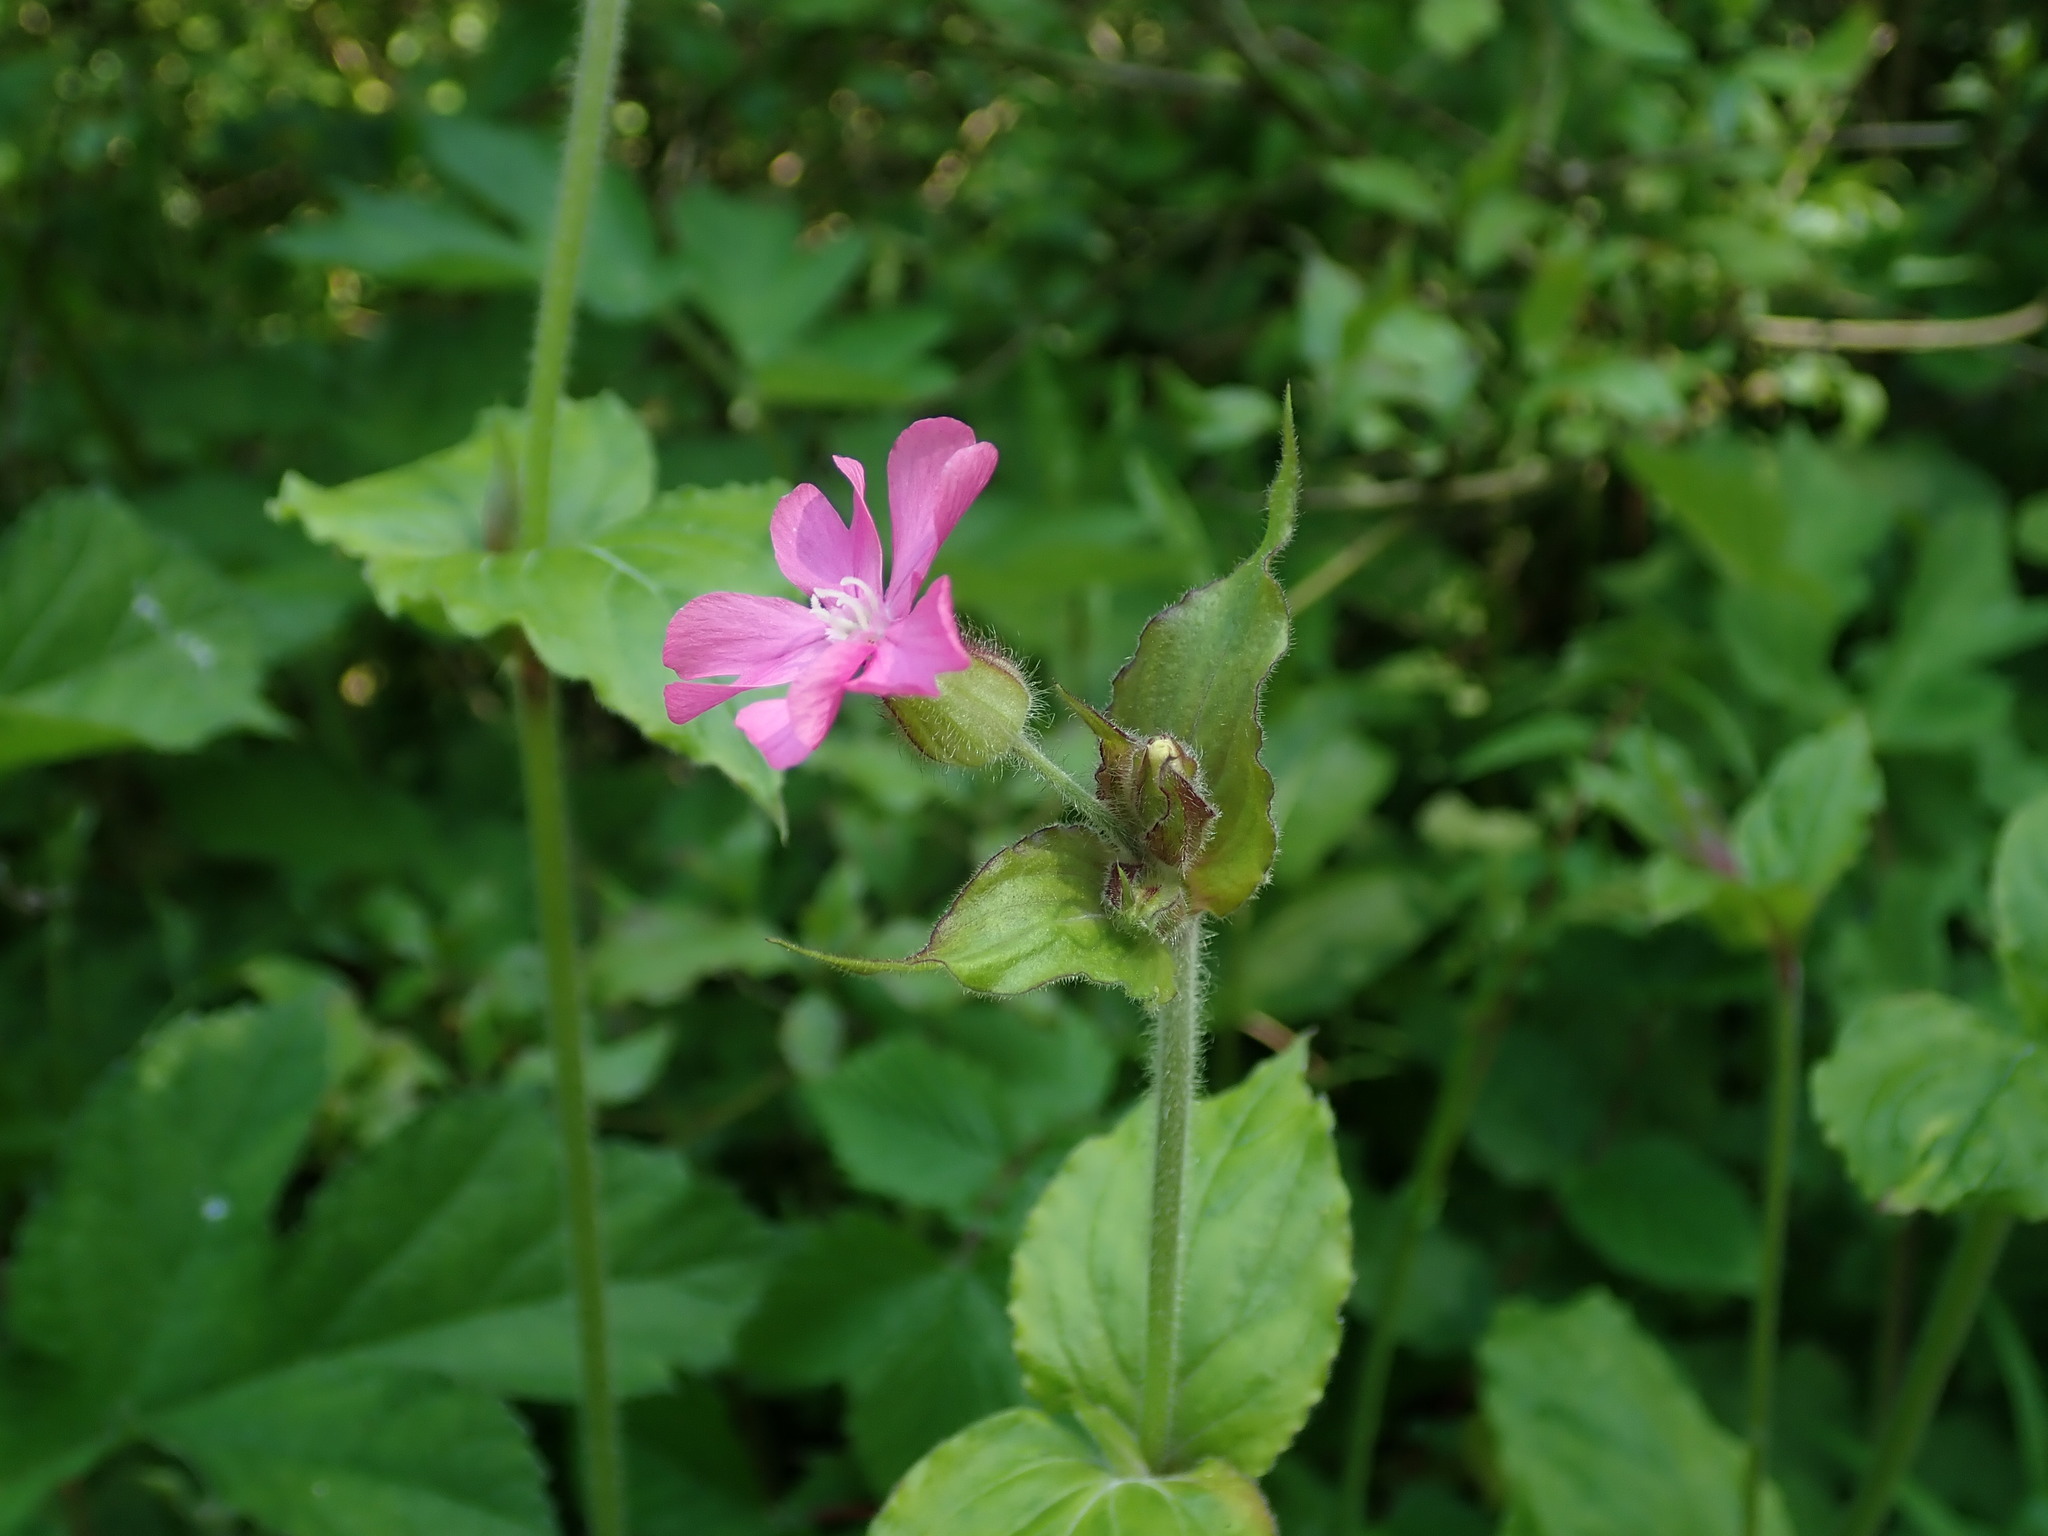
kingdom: Plantae
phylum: Tracheophyta
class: Magnoliopsida
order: Caryophyllales
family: Caryophyllaceae
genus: Silene
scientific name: Silene dioica
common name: Red campion
